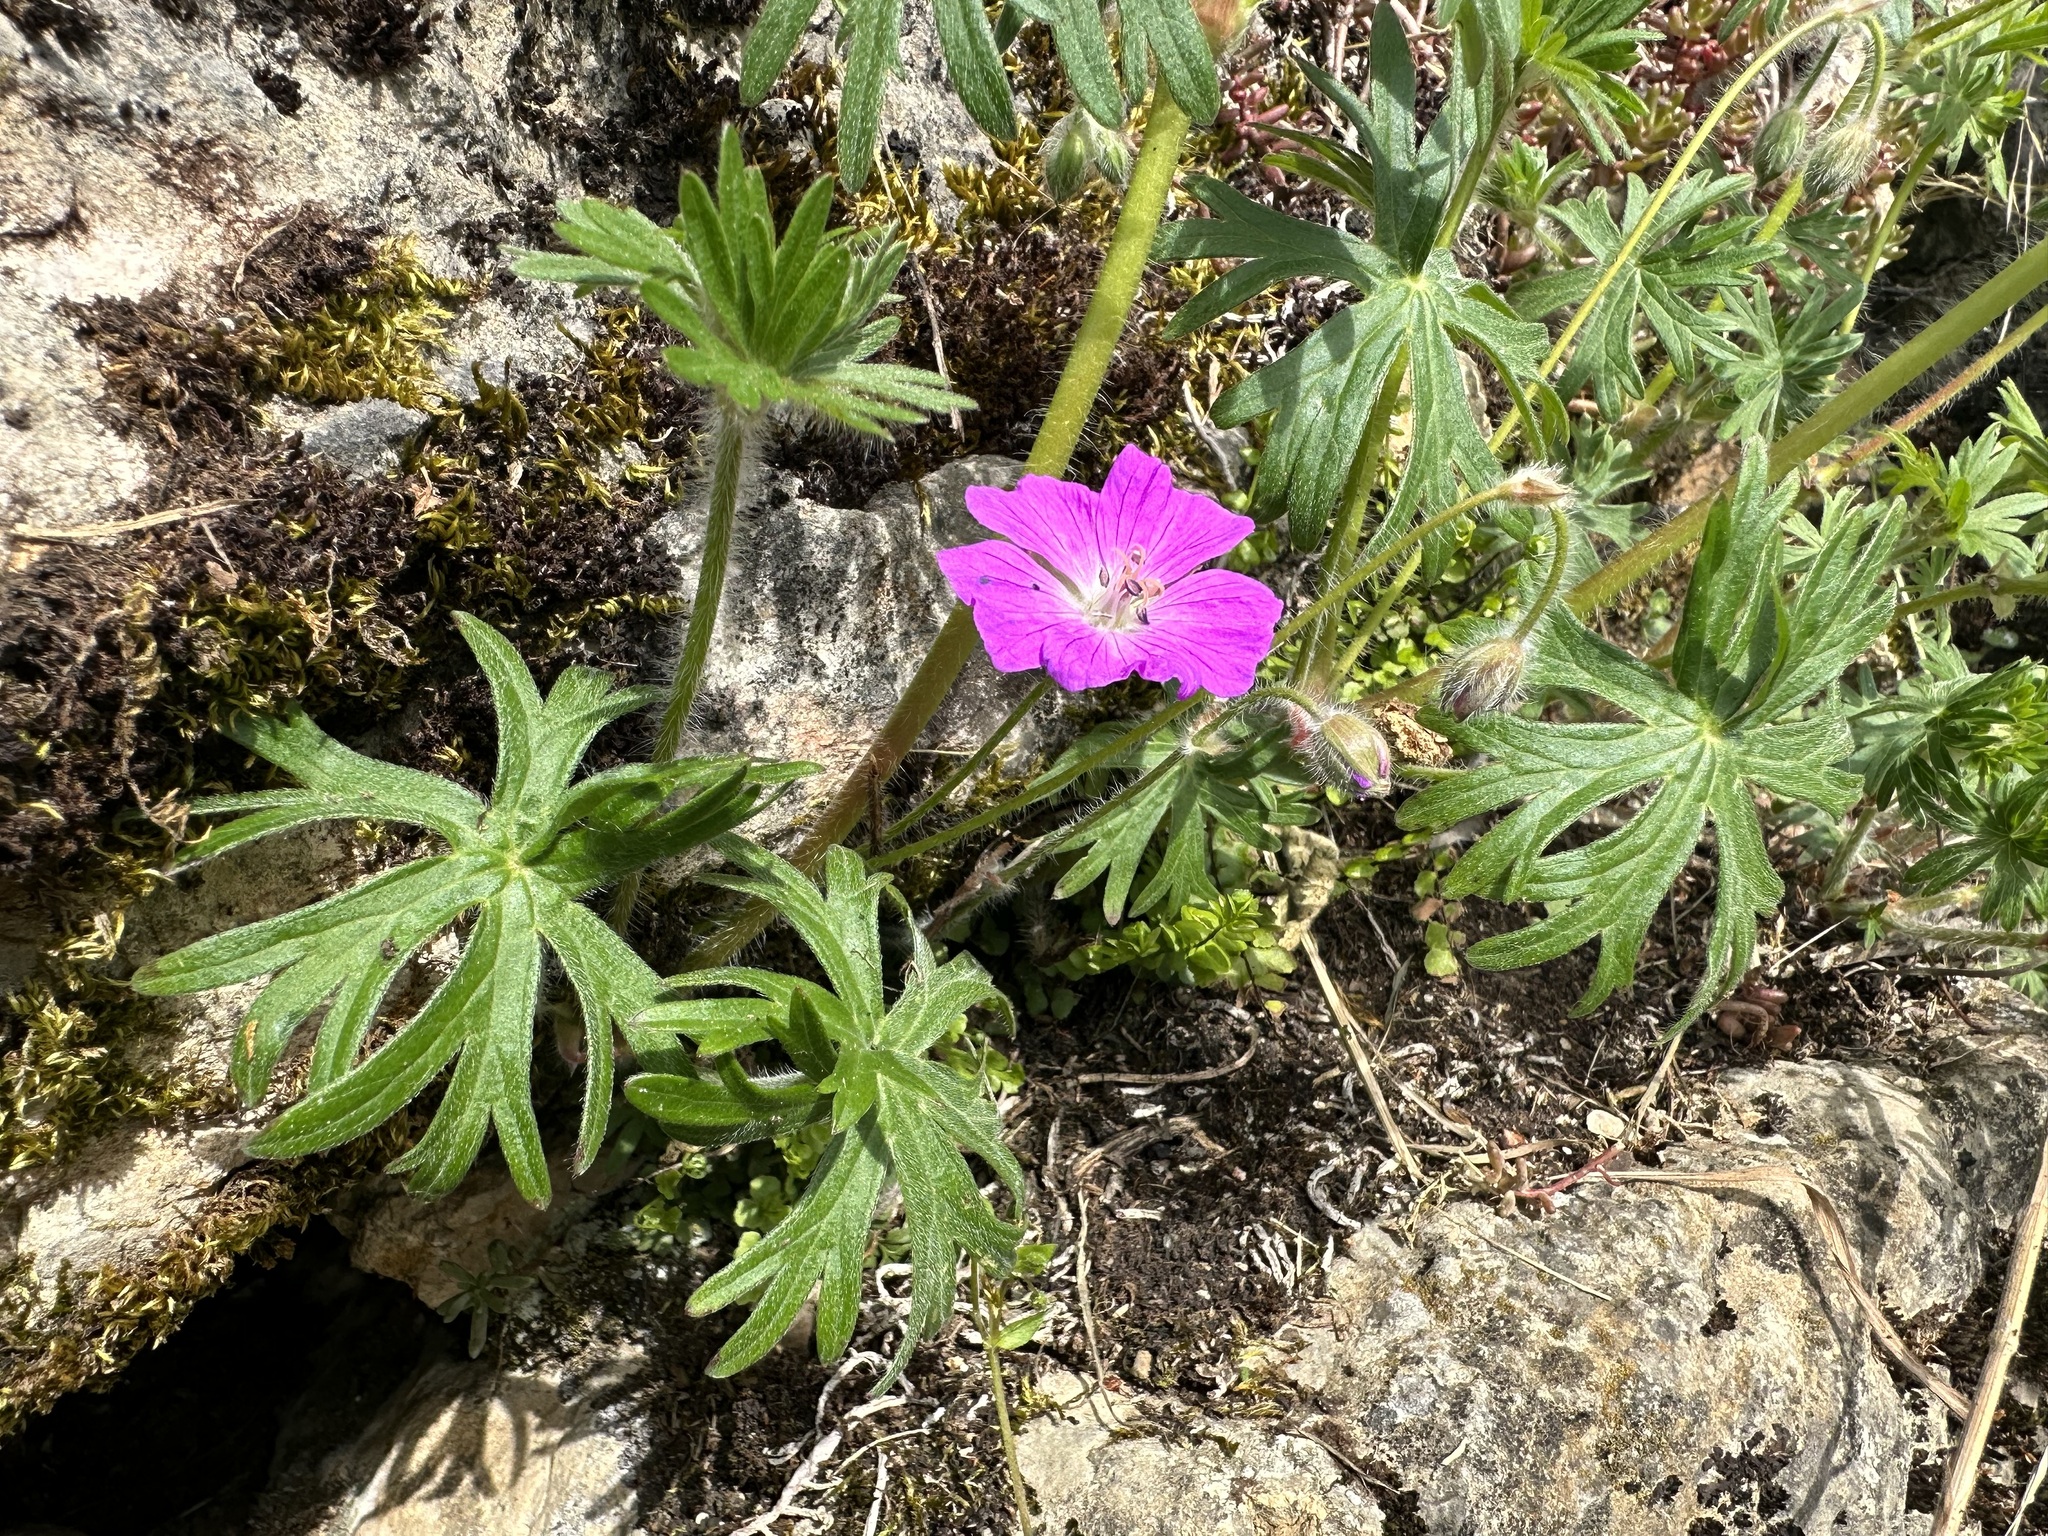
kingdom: Plantae
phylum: Tracheophyta
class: Magnoliopsida
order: Geraniales
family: Geraniaceae
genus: Geranium
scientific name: Geranium sanguineum
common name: Bloody crane's-bill
